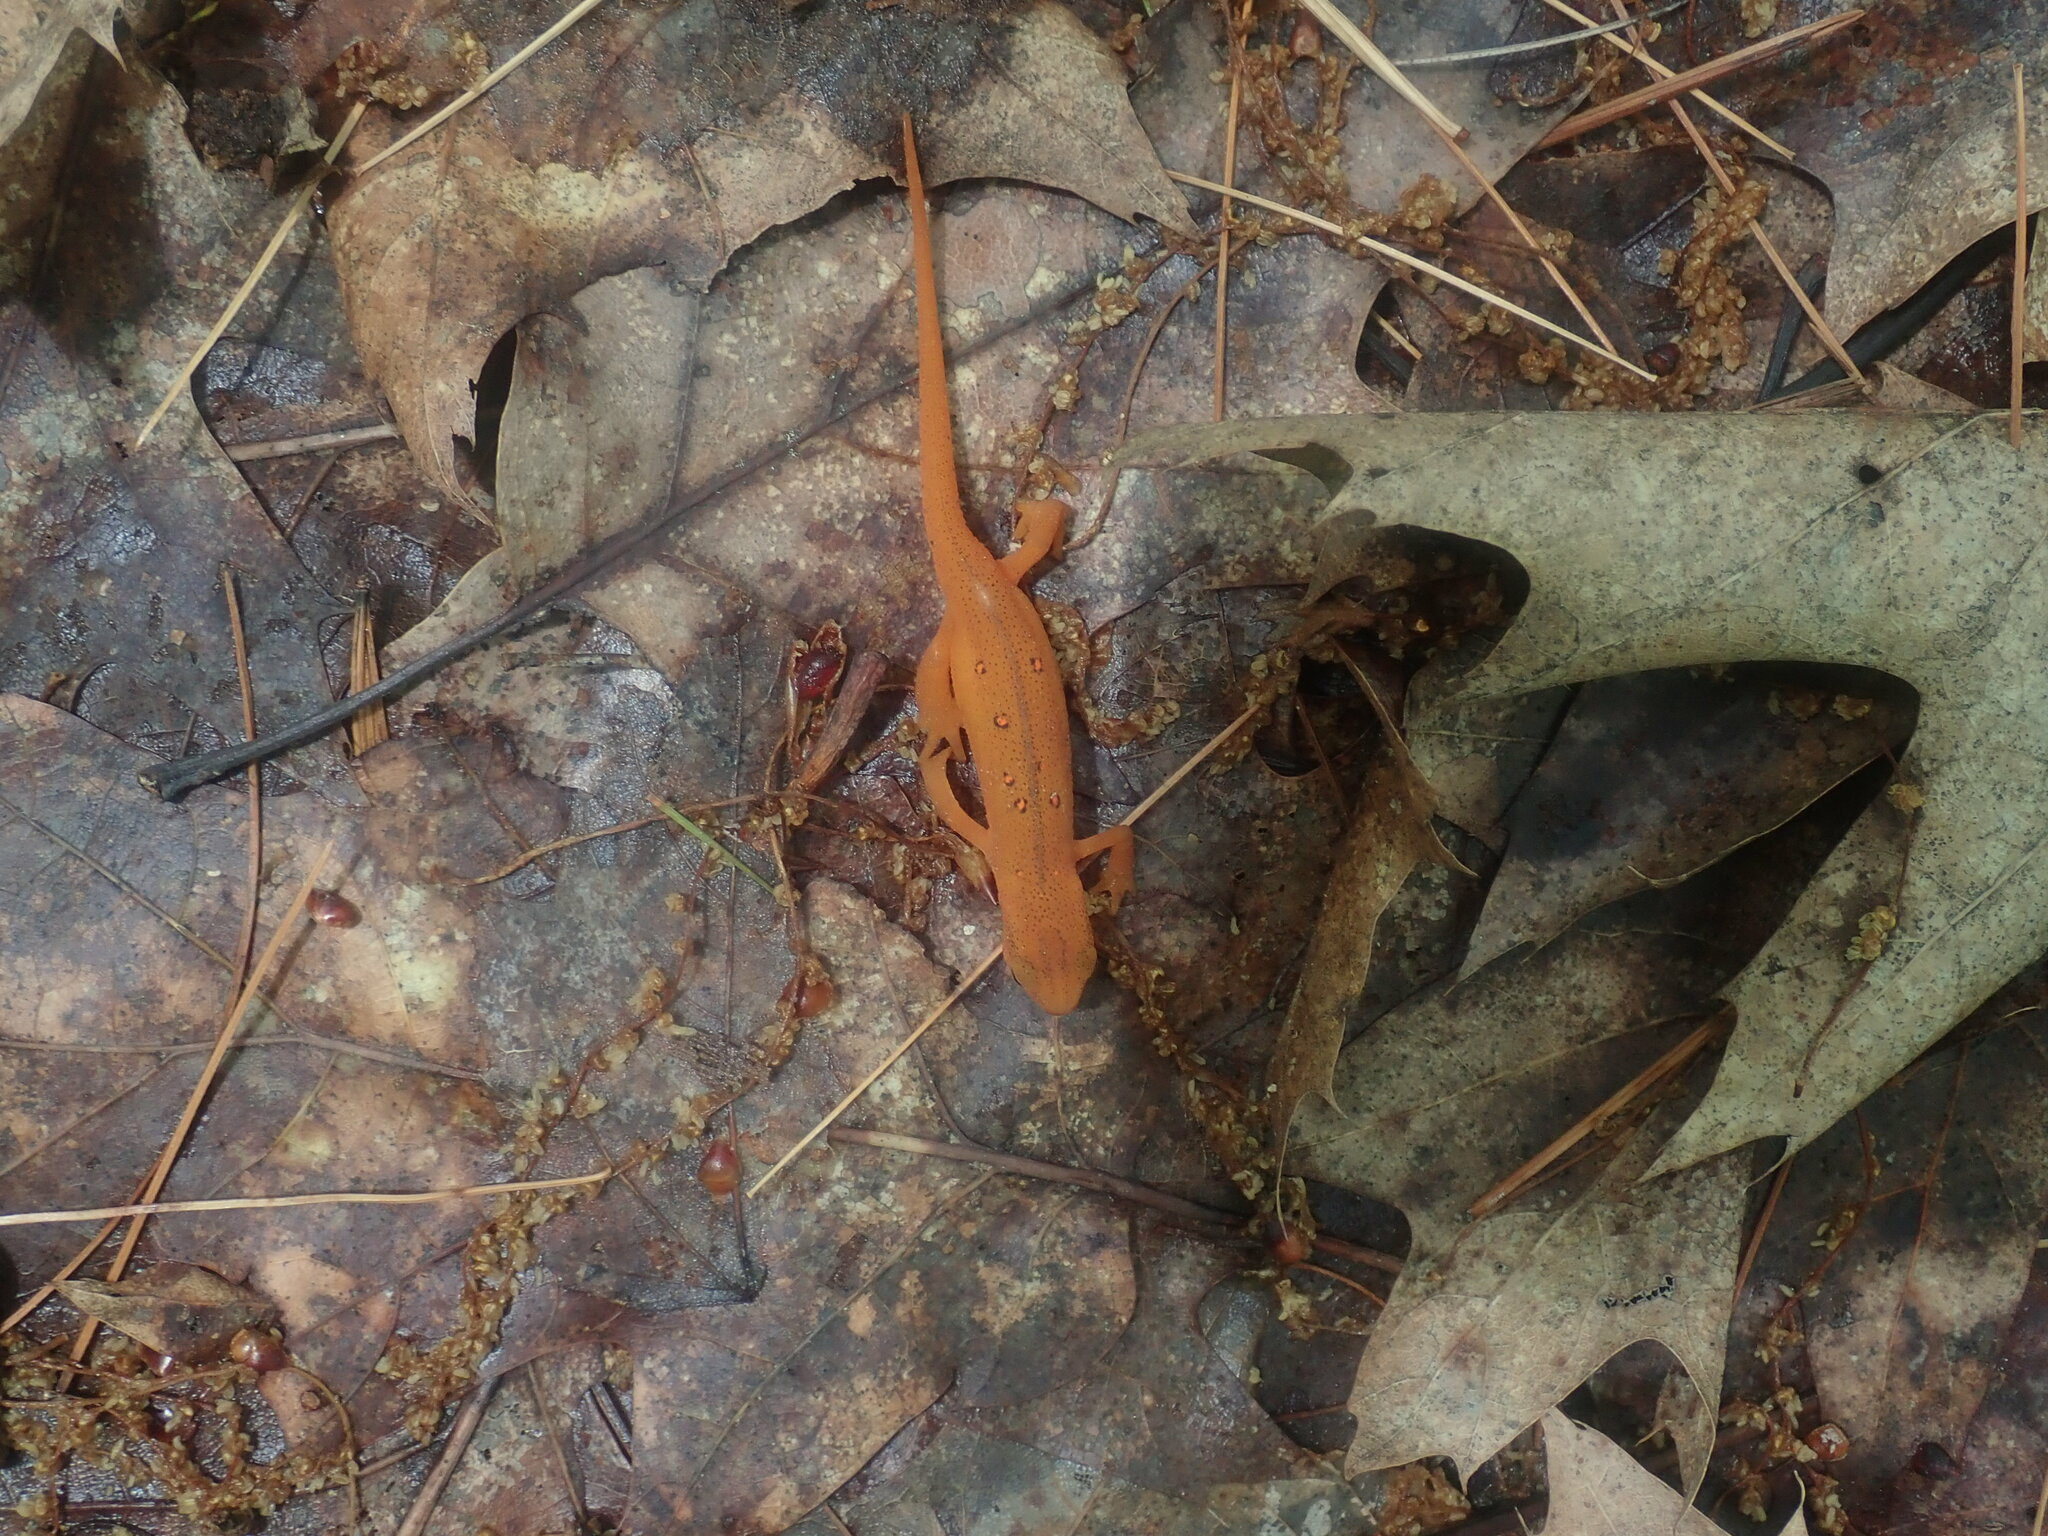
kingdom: Animalia
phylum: Chordata
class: Amphibia
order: Caudata
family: Salamandridae
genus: Notophthalmus
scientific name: Notophthalmus viridescens
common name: Eastern newt
